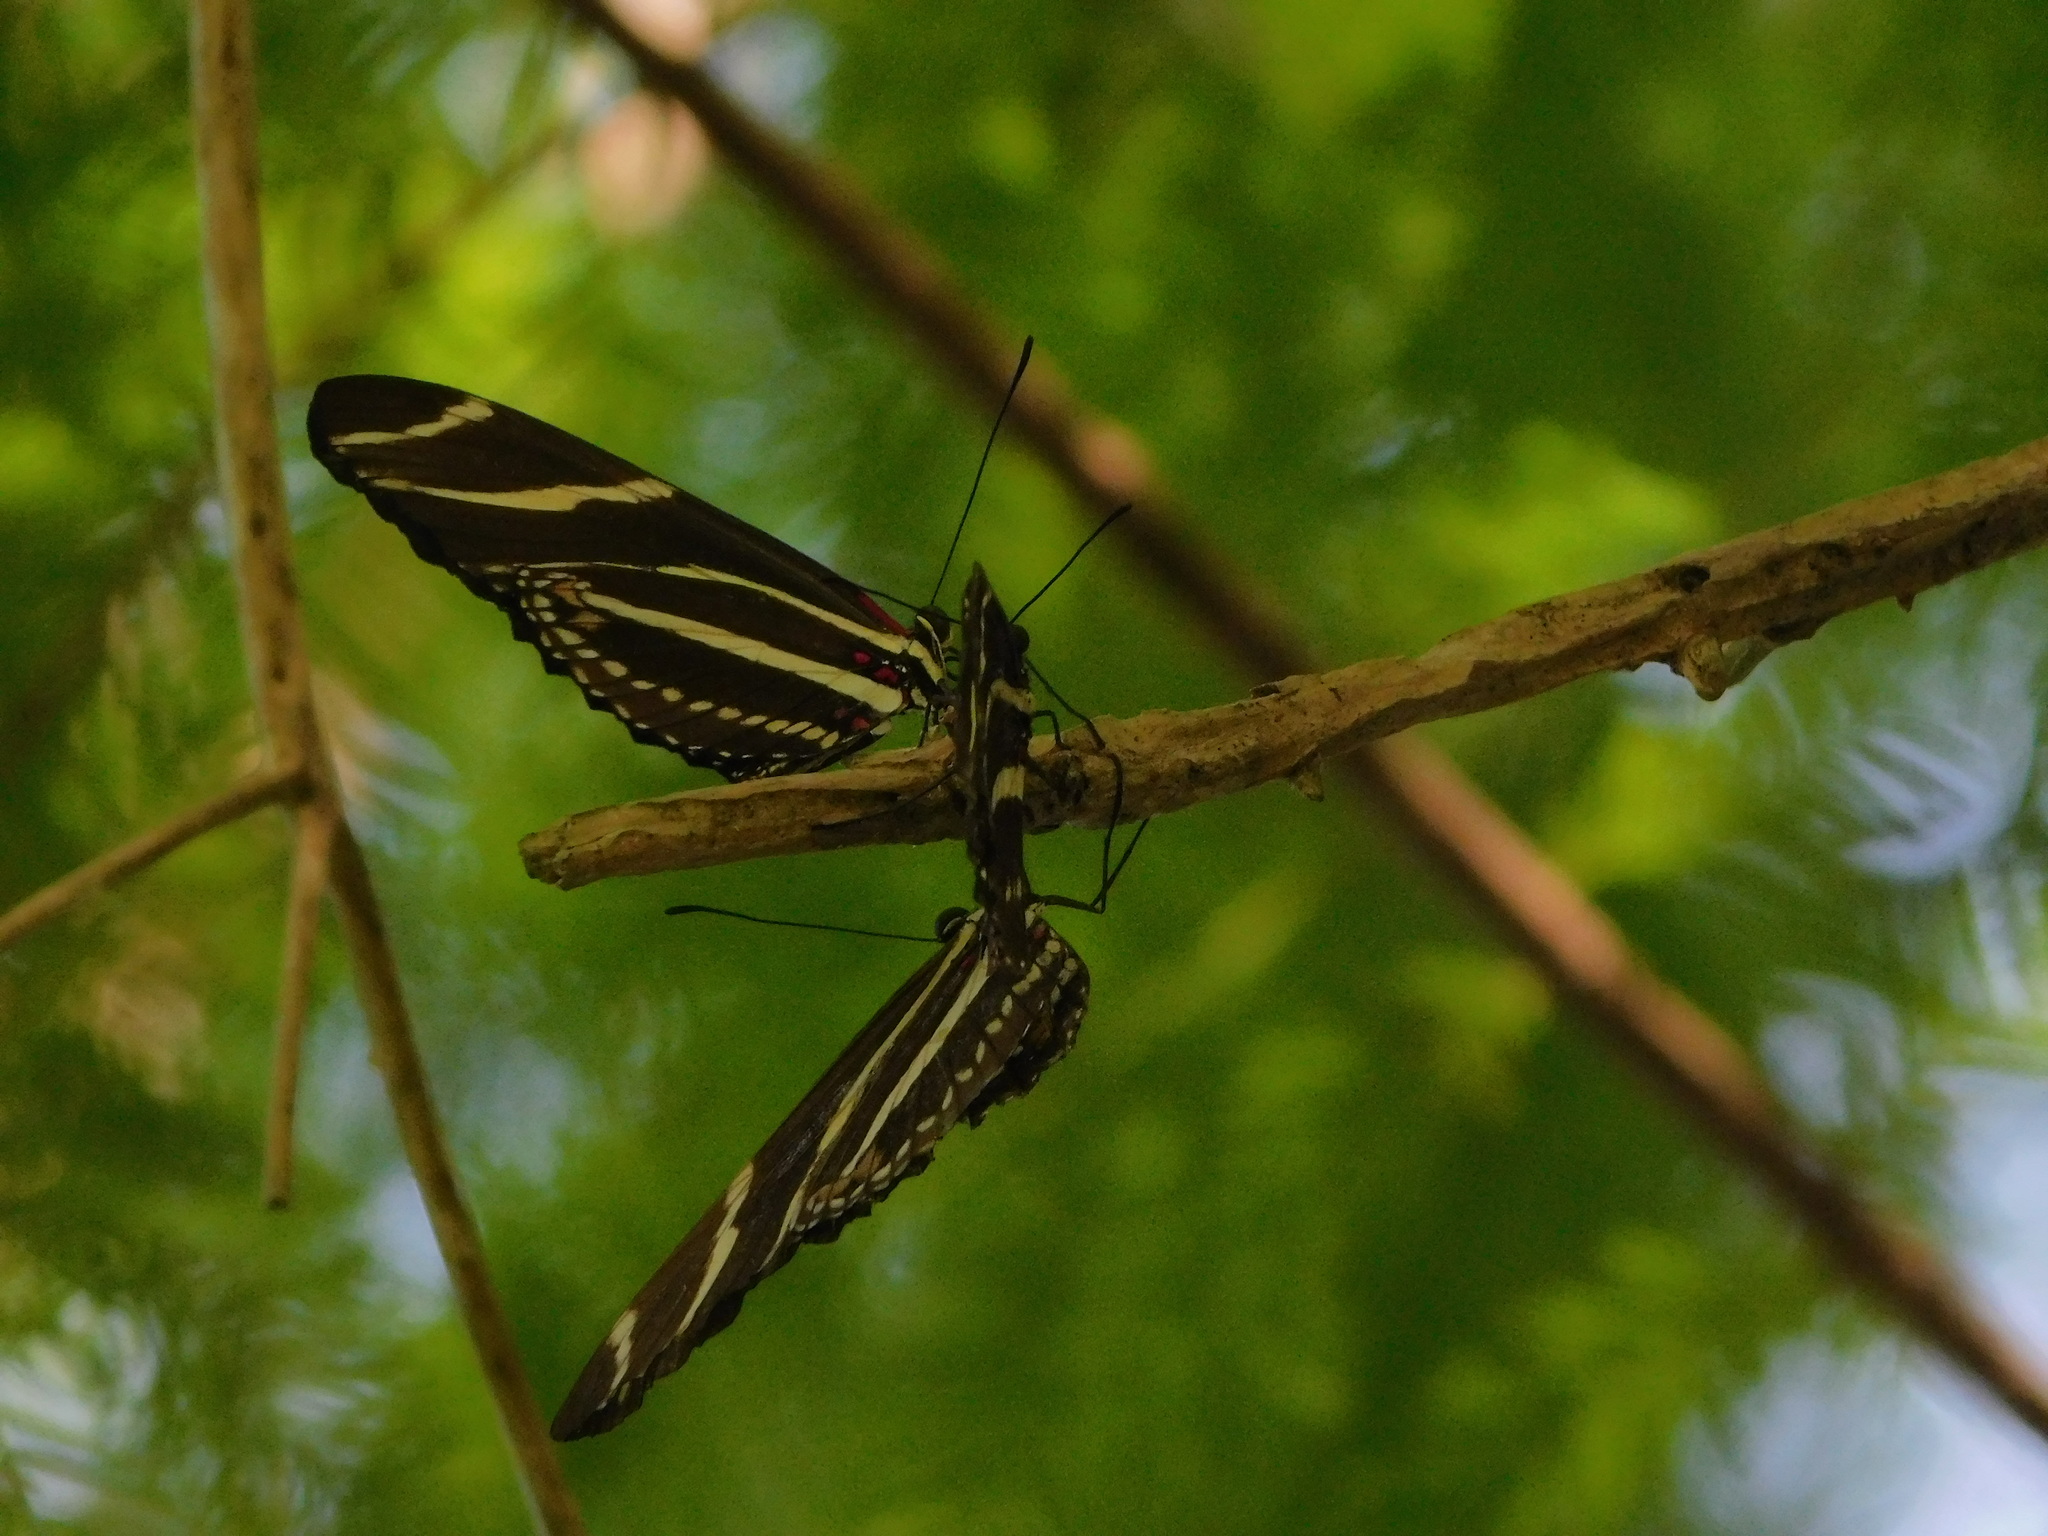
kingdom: Animalia
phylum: Arthropoda
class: Insecta
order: Lepidoptera
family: Nymphalidae
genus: Heliconius
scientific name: Heliconius charithonia
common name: Zebra long wing
